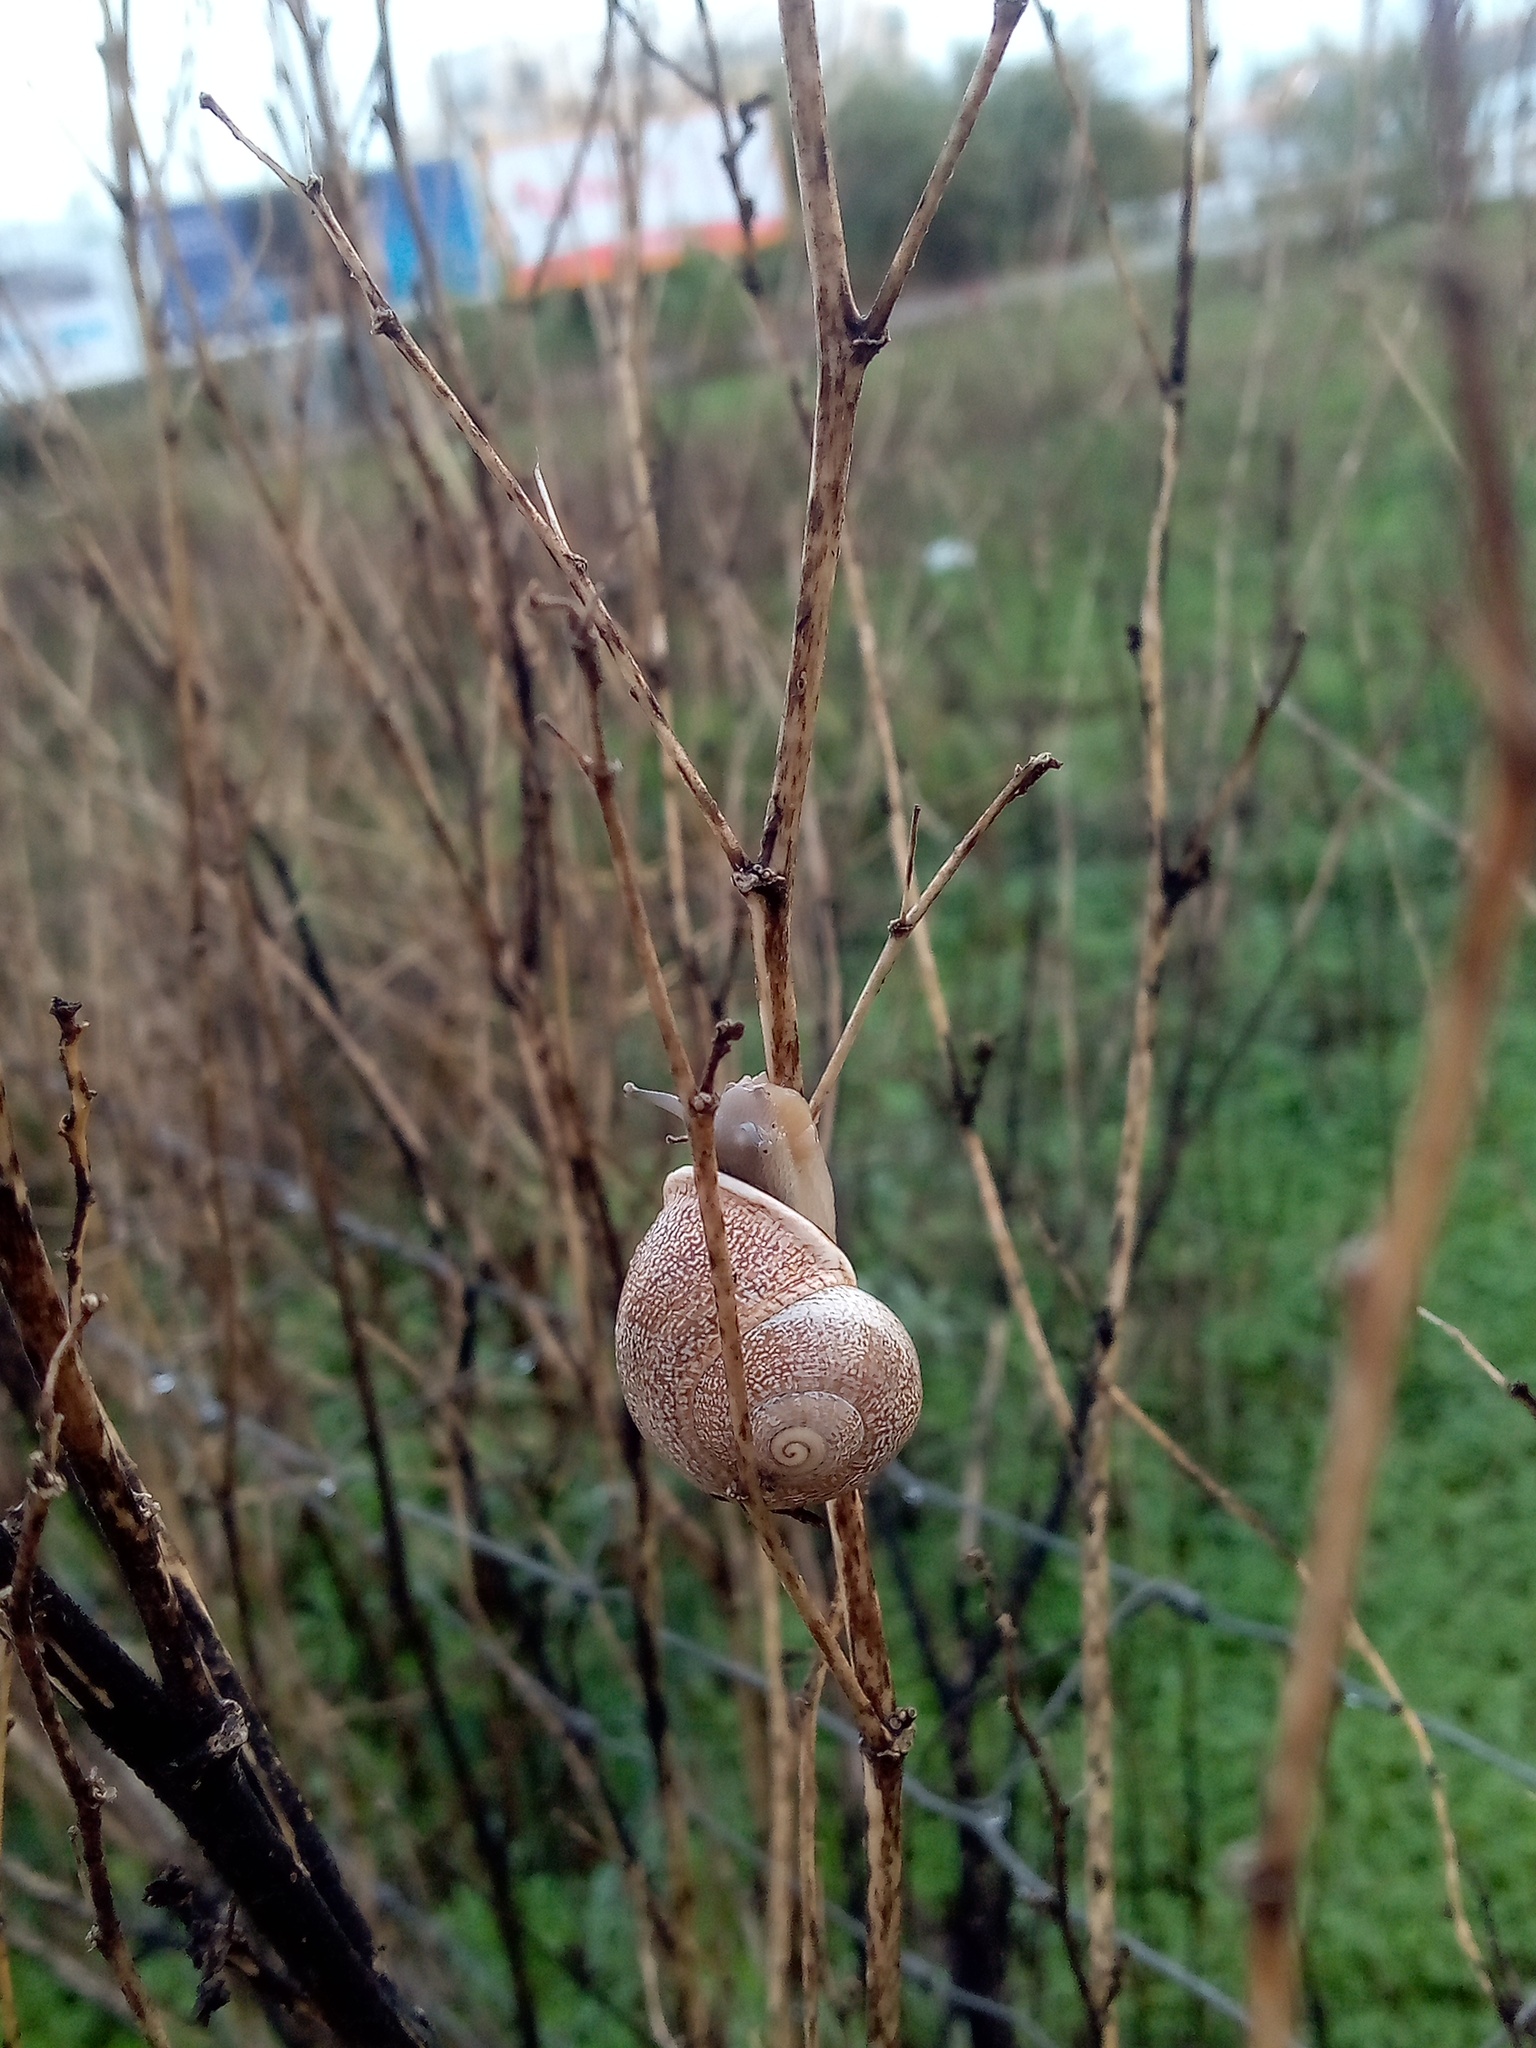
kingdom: Animalia
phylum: Mollusca
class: Gastropoda
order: Stylommatophora
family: Helicidae
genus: Otala
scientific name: Otala lactea
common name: Milk snail
